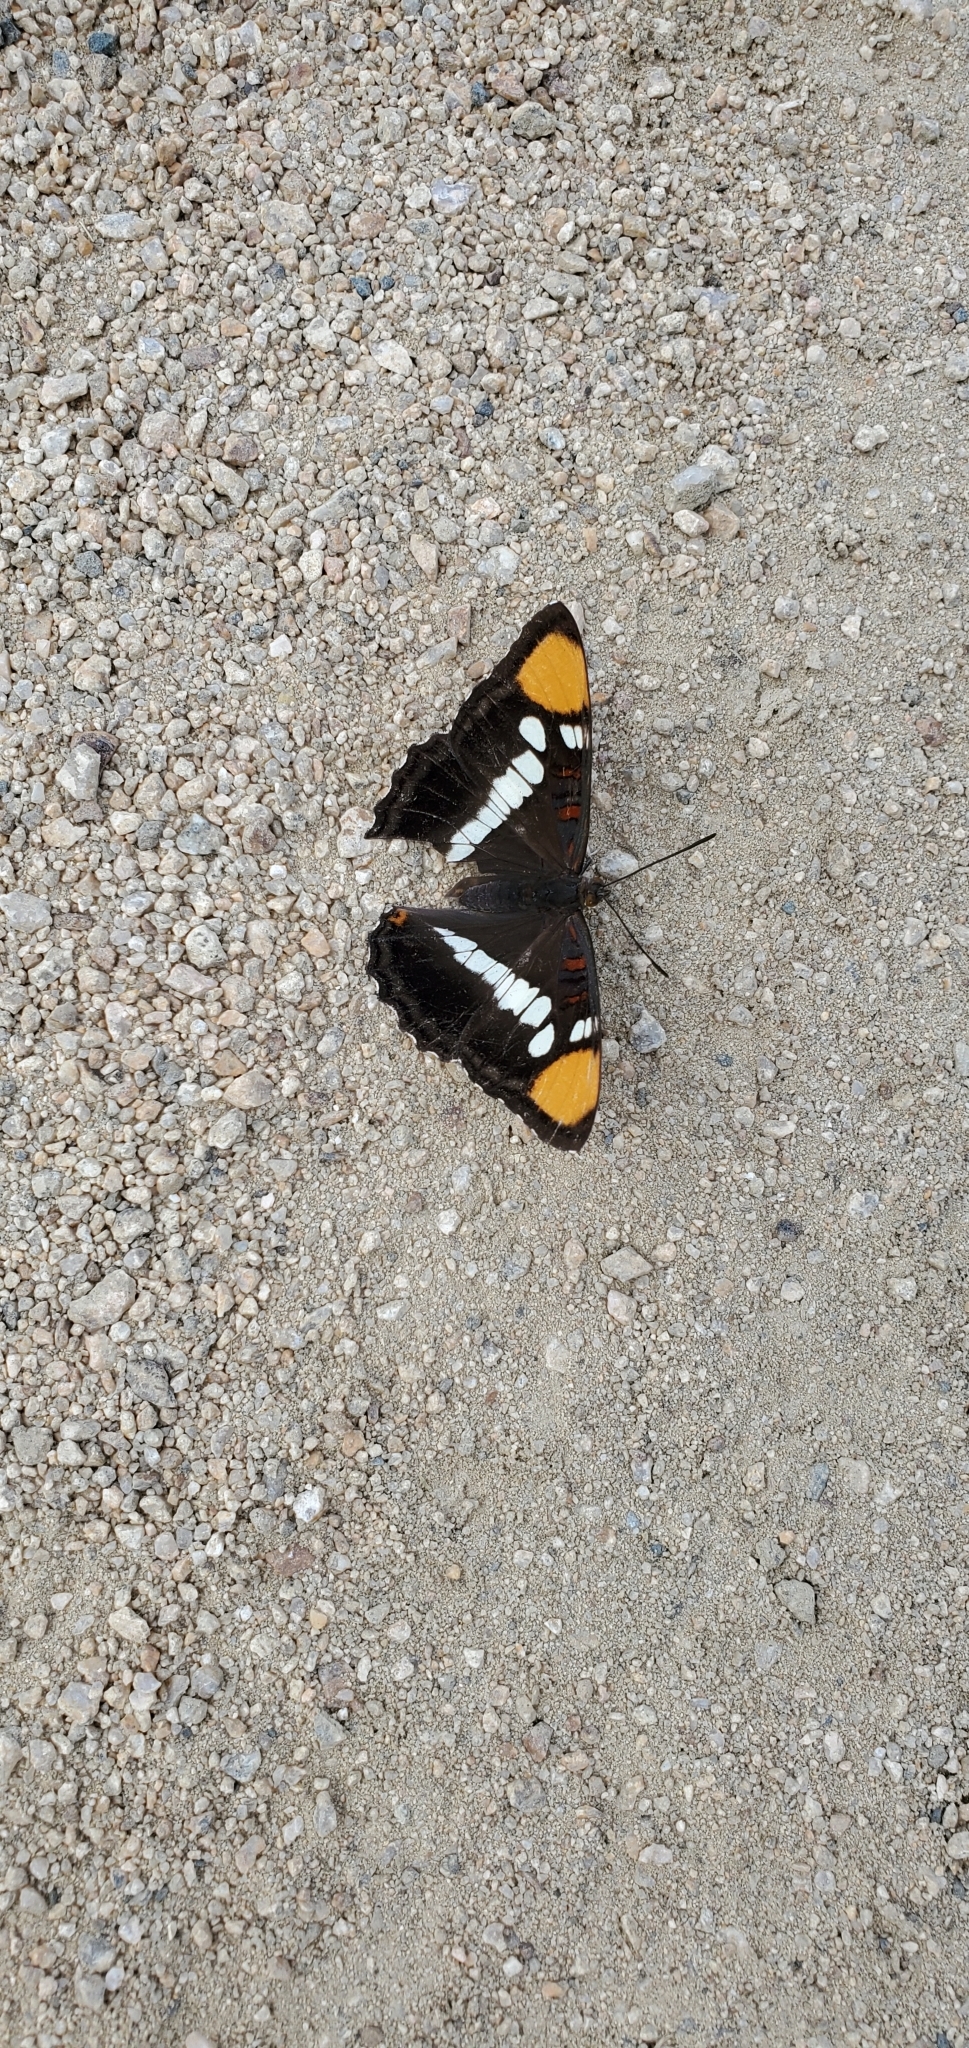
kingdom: Animalia
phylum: Arthropoda
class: Insecta
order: Lepidoptera
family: Nymphalidae
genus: Limenitis
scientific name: Limenitis bredowii
